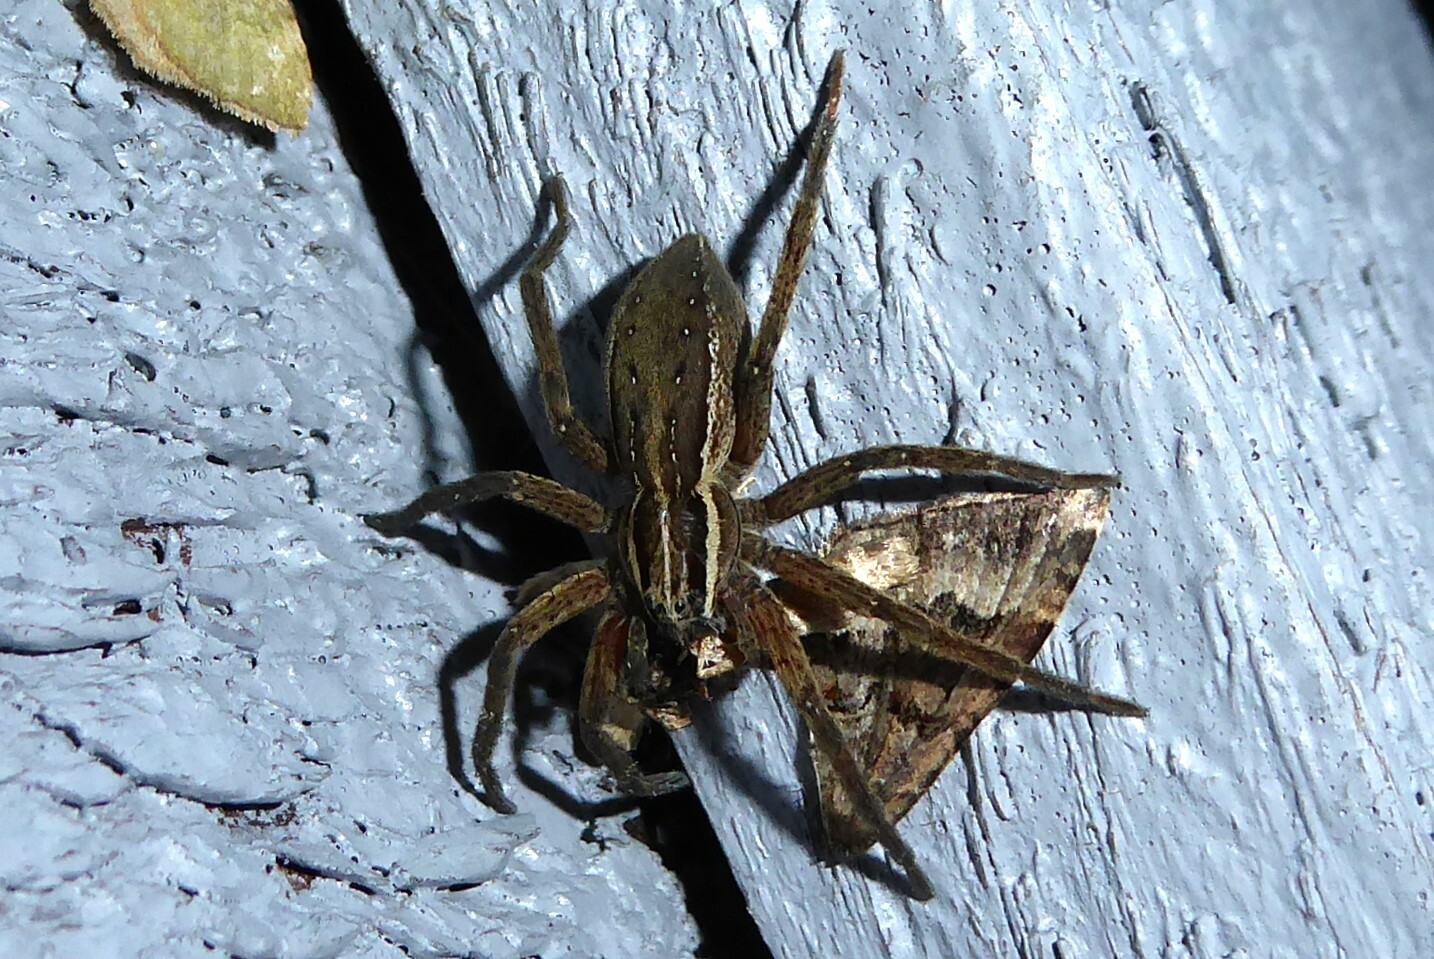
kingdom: Animalia
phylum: Arthropoda
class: Arachnida
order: Araneae
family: Pisauridae
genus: Dolomedes
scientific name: Dolomedes minor
